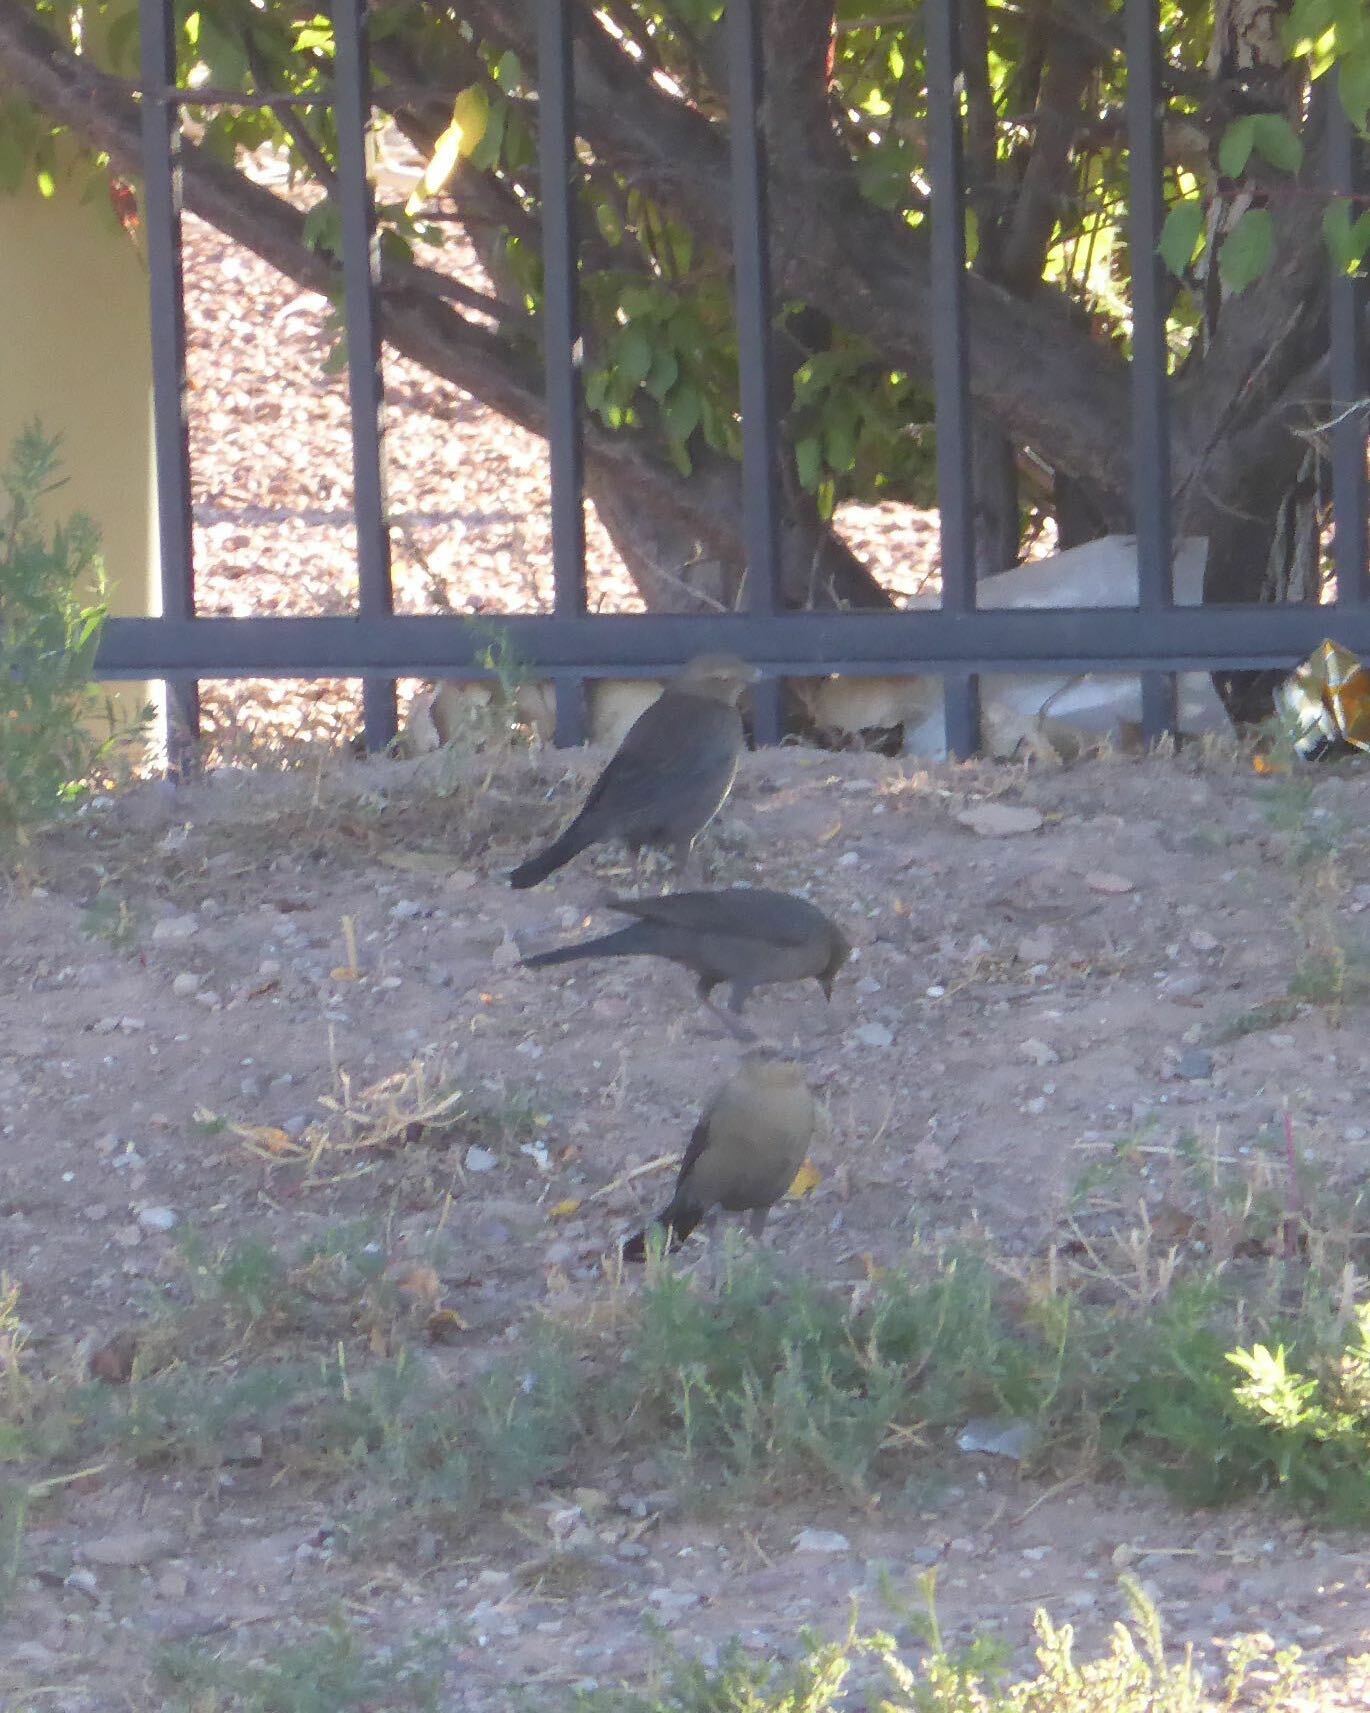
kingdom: Animalia
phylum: Chordata
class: Aves
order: Passeriformes
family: Icteridae
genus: Euphagus
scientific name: Euphagus cyanocephalus
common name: Brewer's blackbird
